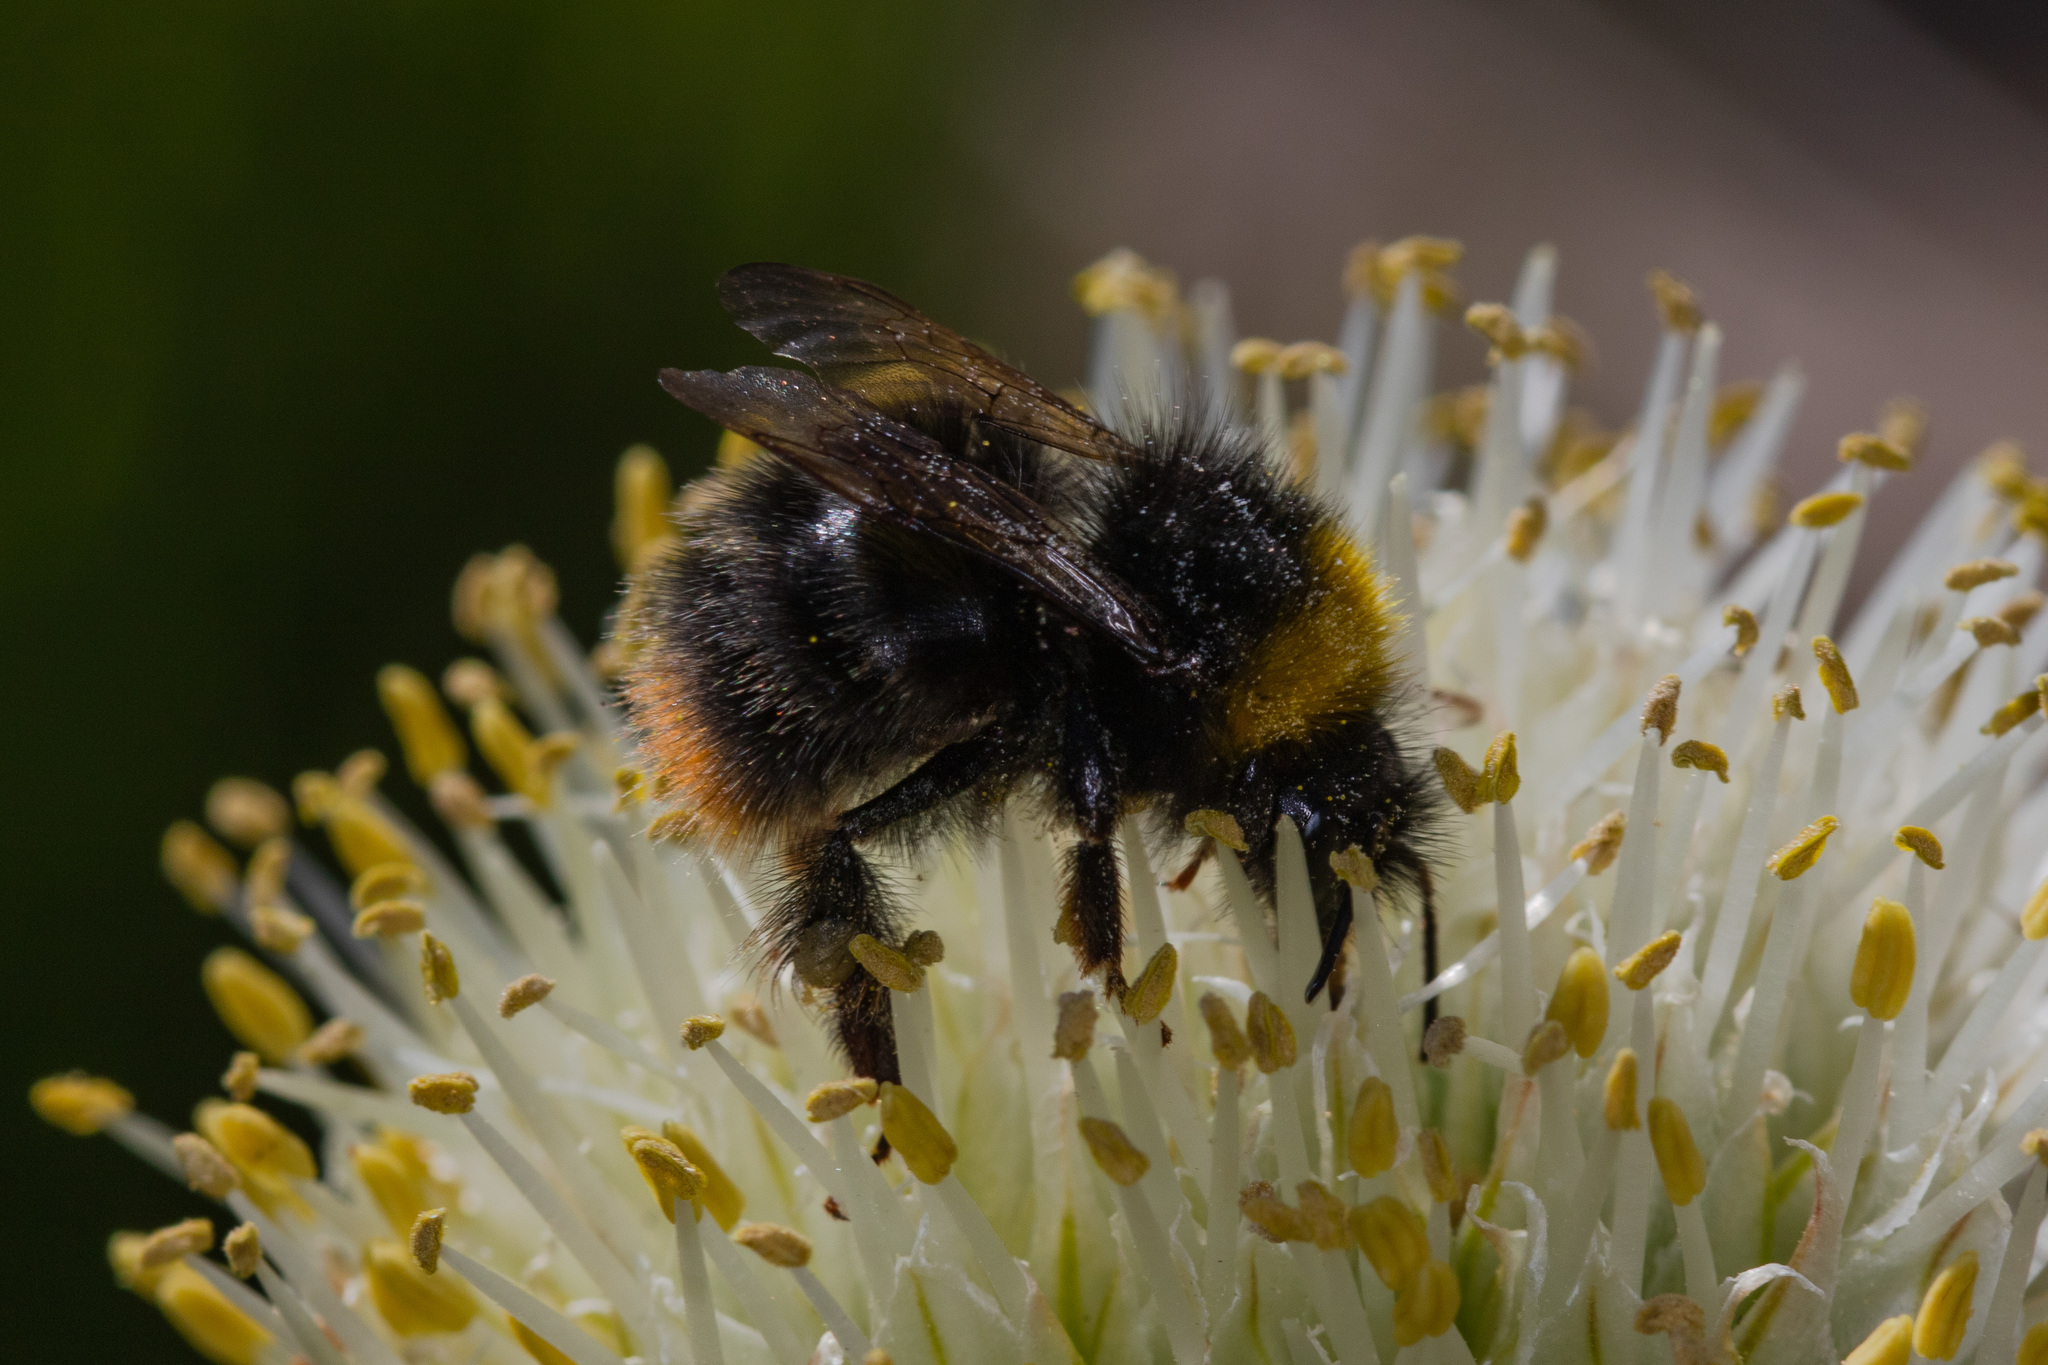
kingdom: Animalia
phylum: Arthropoda
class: Insecta
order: Hymenoptera
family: Apidae
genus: Bombus
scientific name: Bombus pratorum
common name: Early humble-bee
